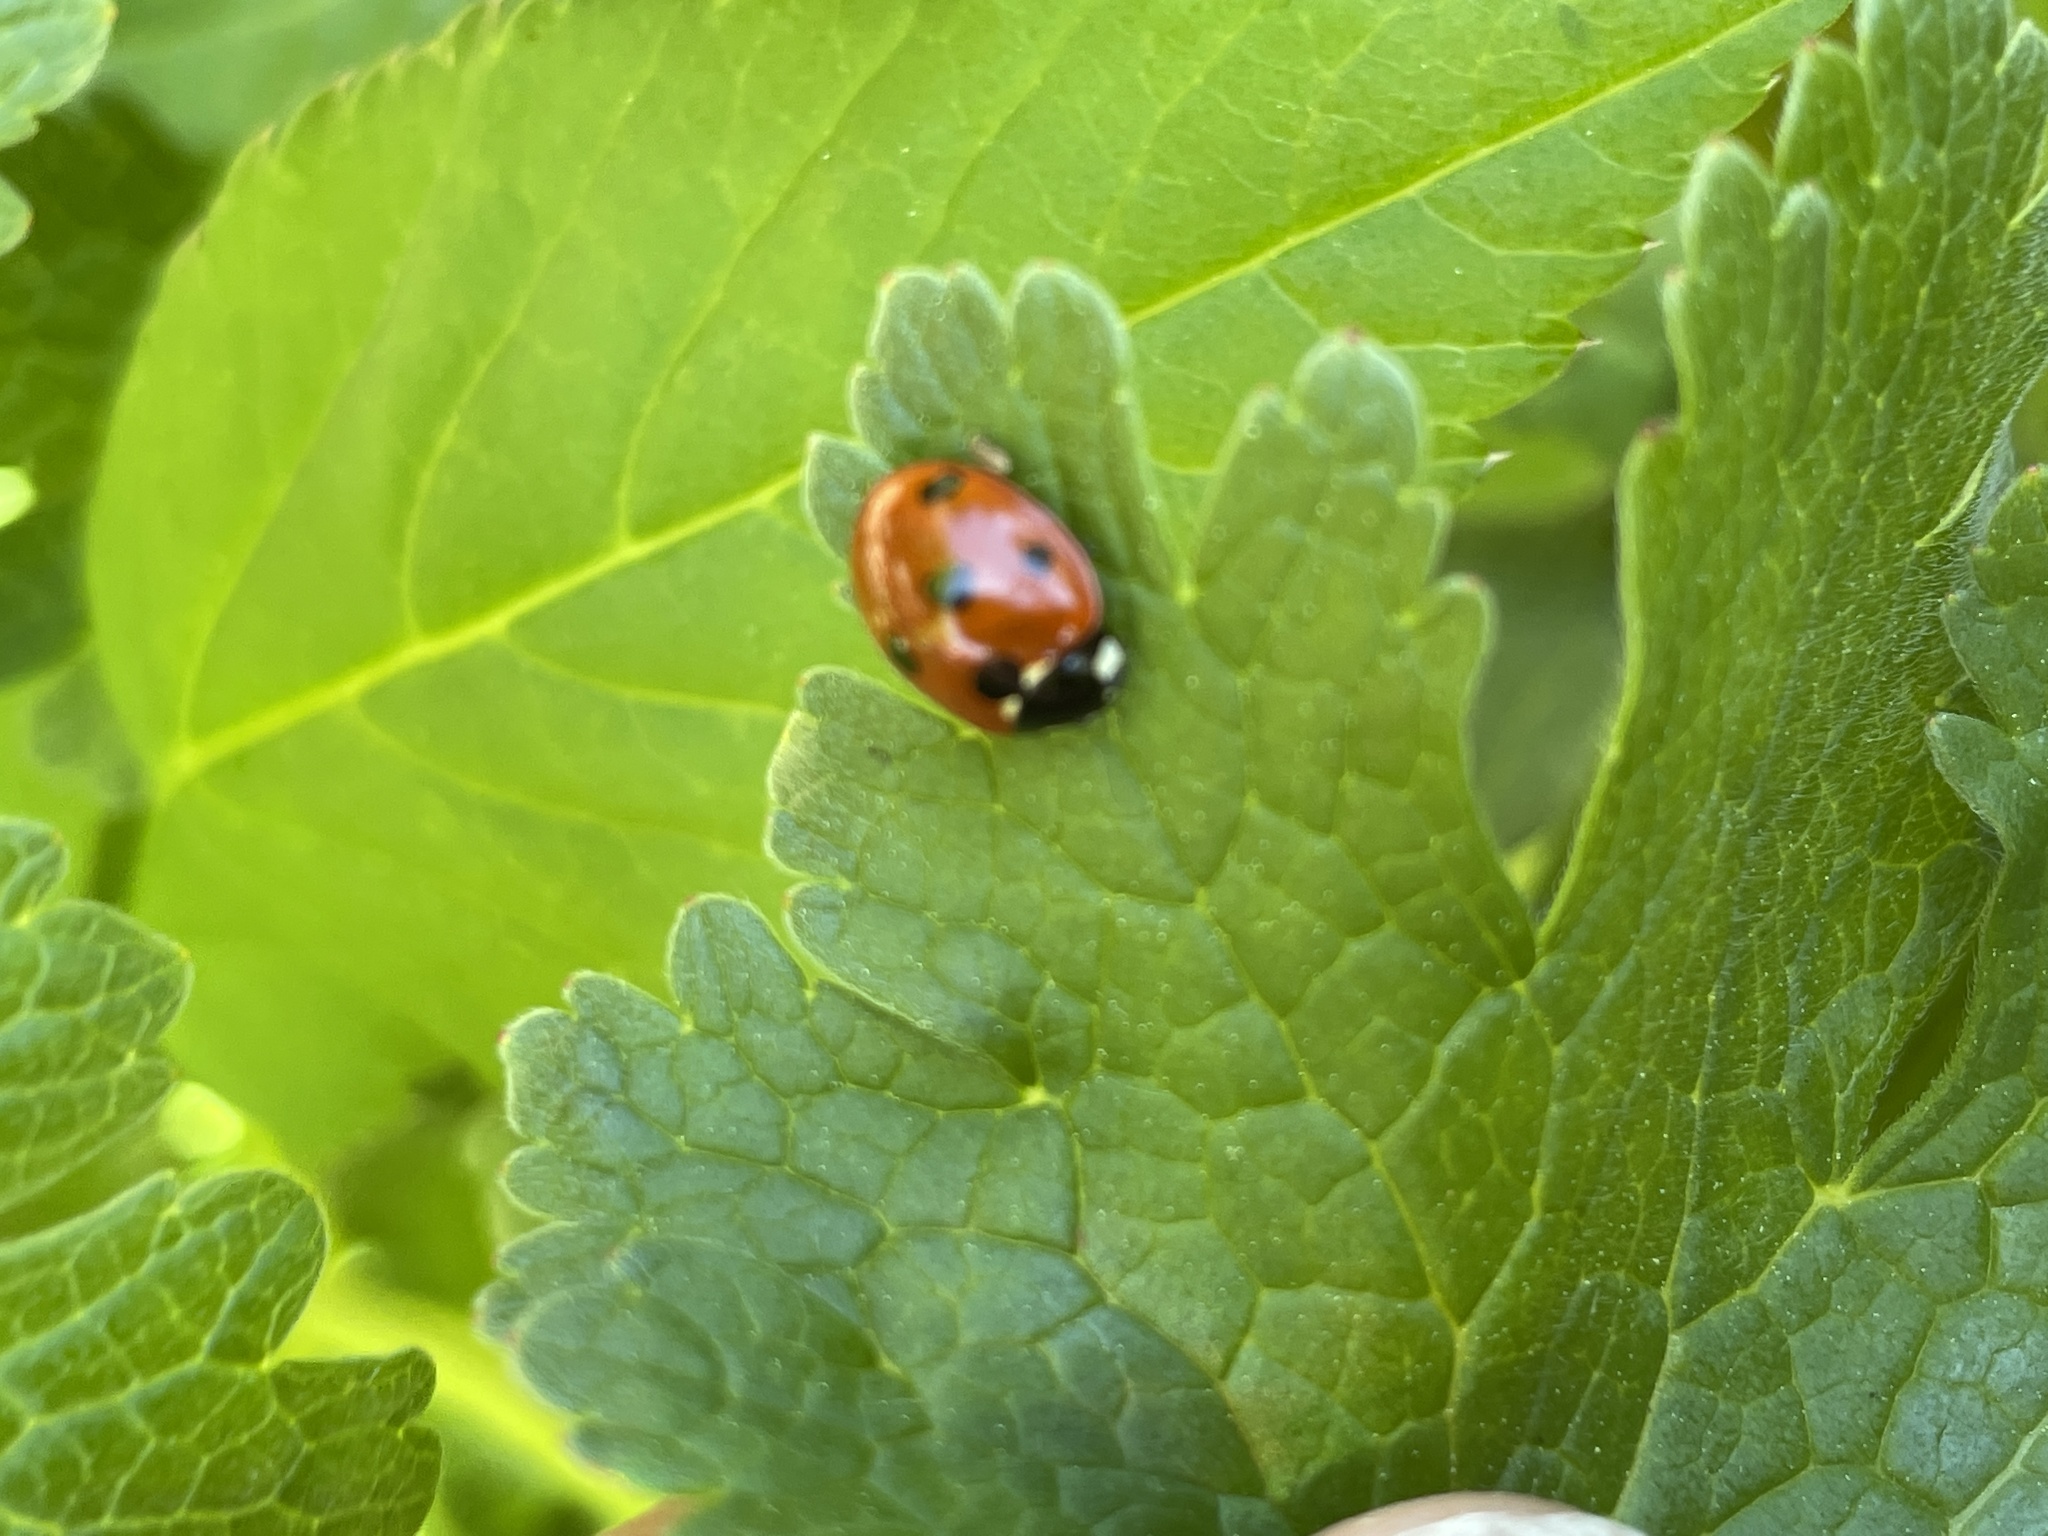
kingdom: Animalia
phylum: Arthropoda
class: Insecta
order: Coleoptera
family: Coccinellidae
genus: Coccinella
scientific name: Coccinella septempunctata
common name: Sevenspotted lady beetle
